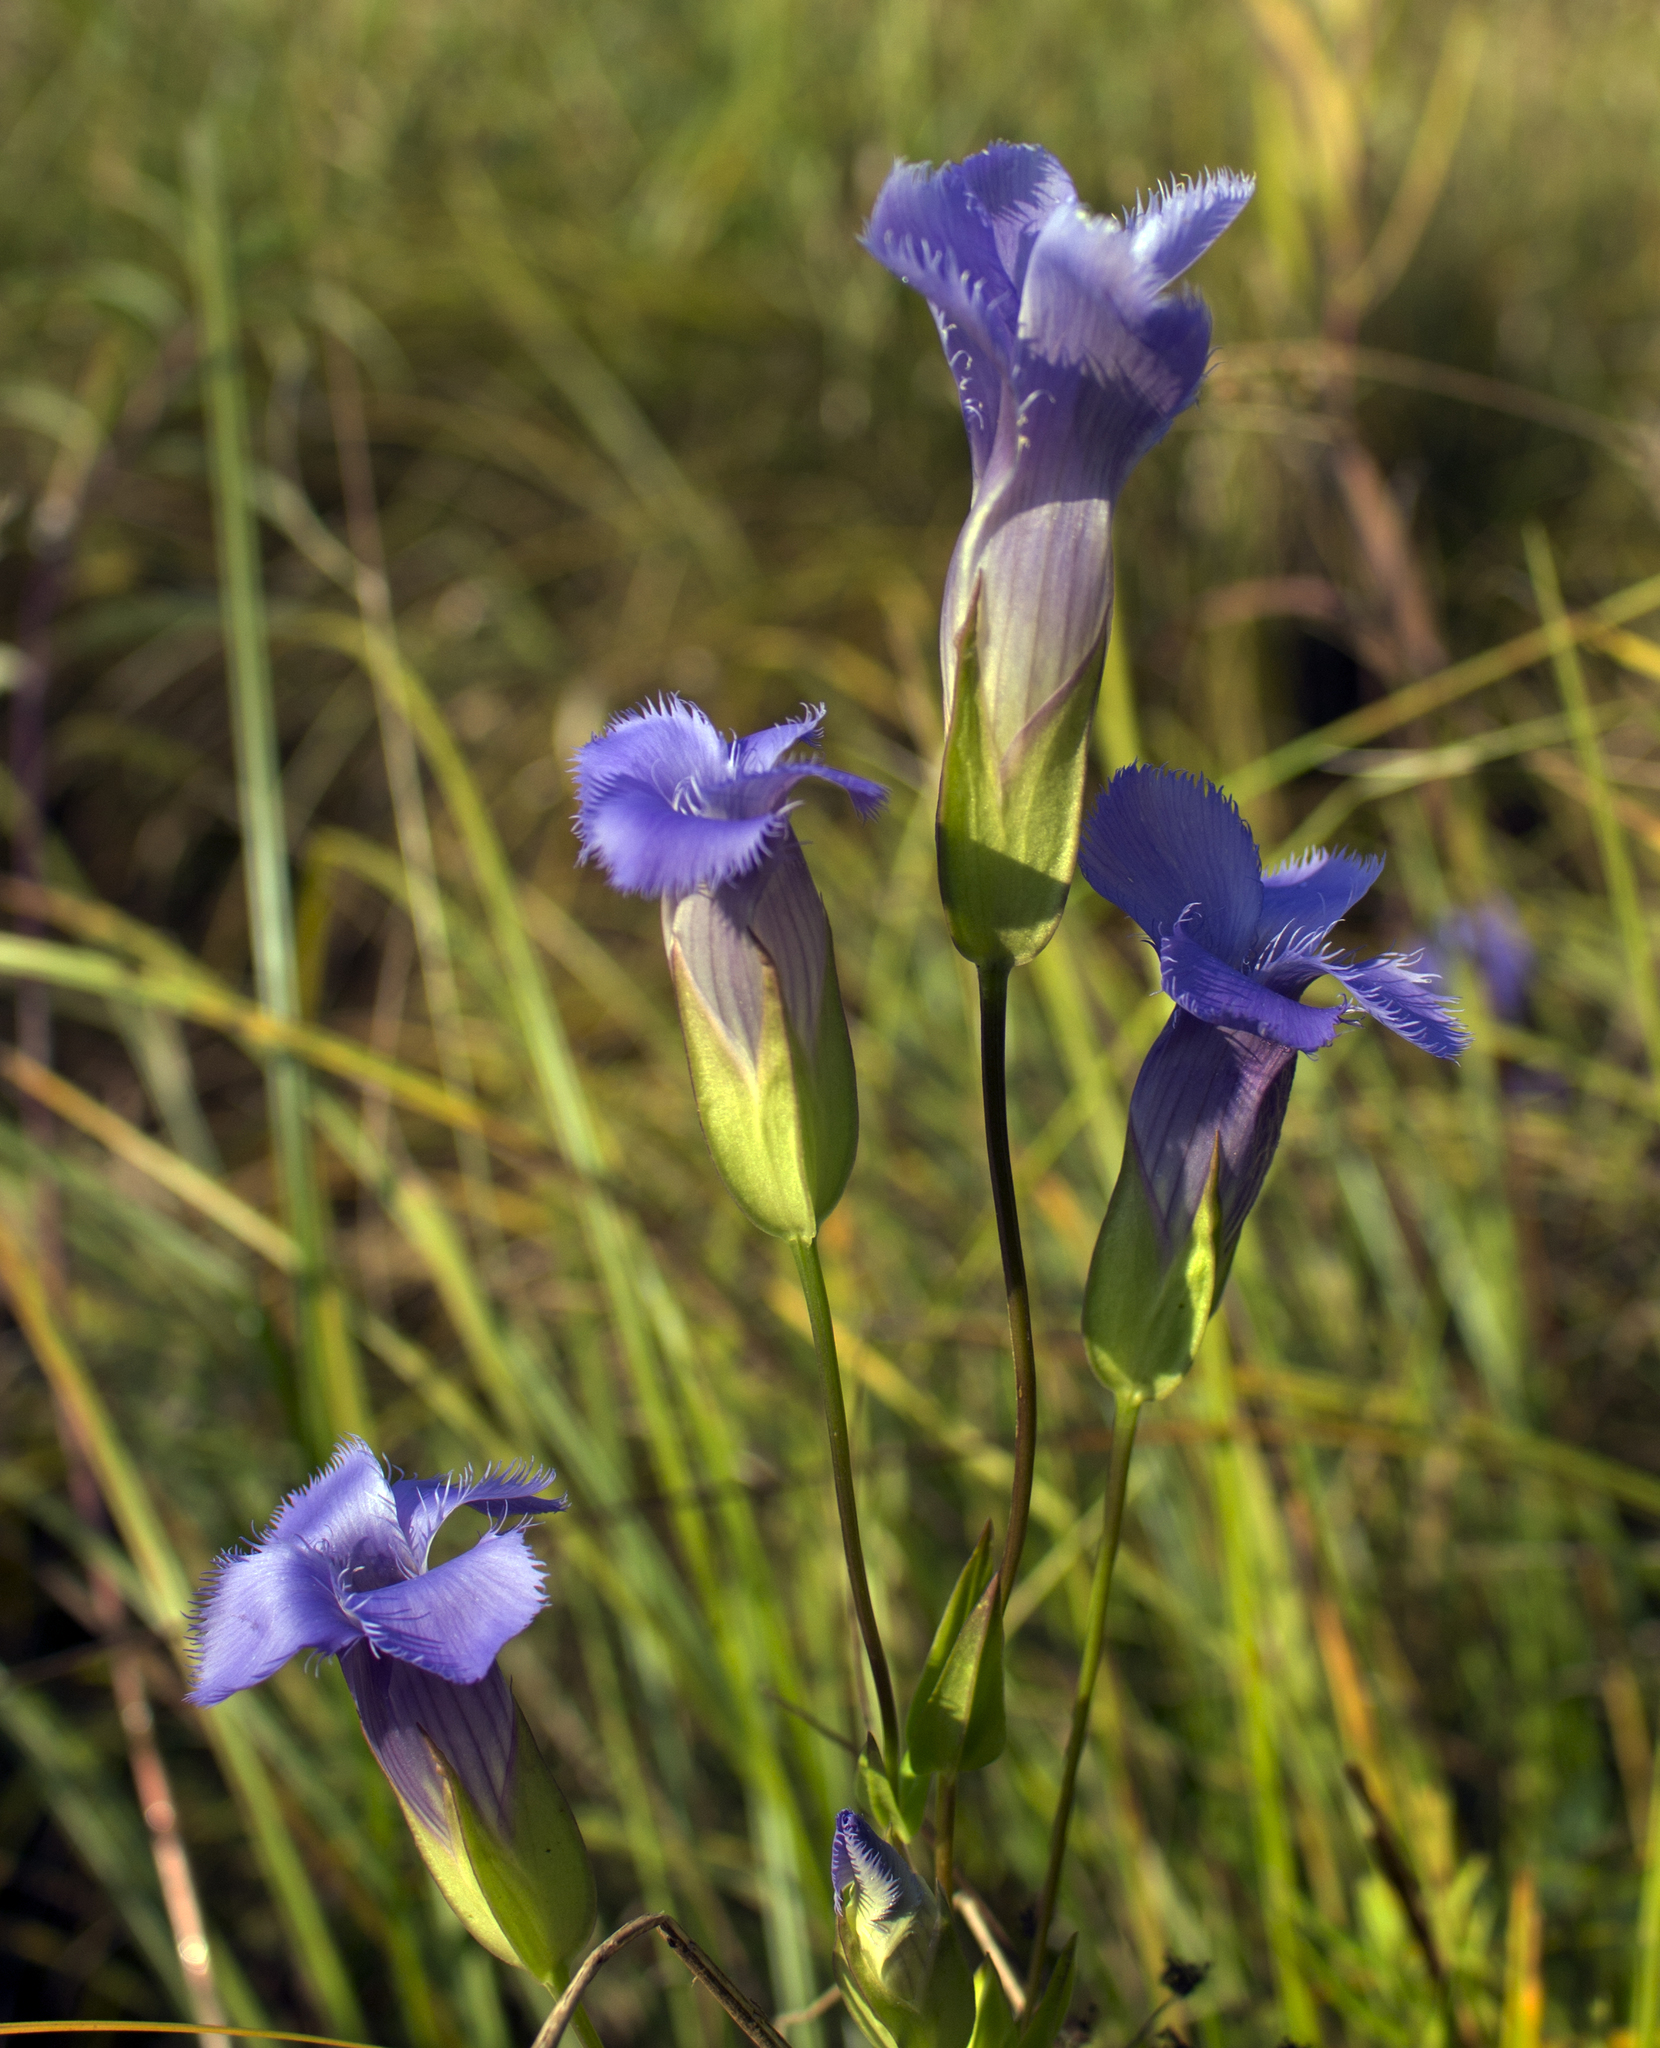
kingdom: Plantae
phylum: Tracheophyta
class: Magnoliopsida
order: Gentianales
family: Gentianaceae
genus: Gentianopsis
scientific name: Gentianopsis crinita
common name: Fringed-gentian
